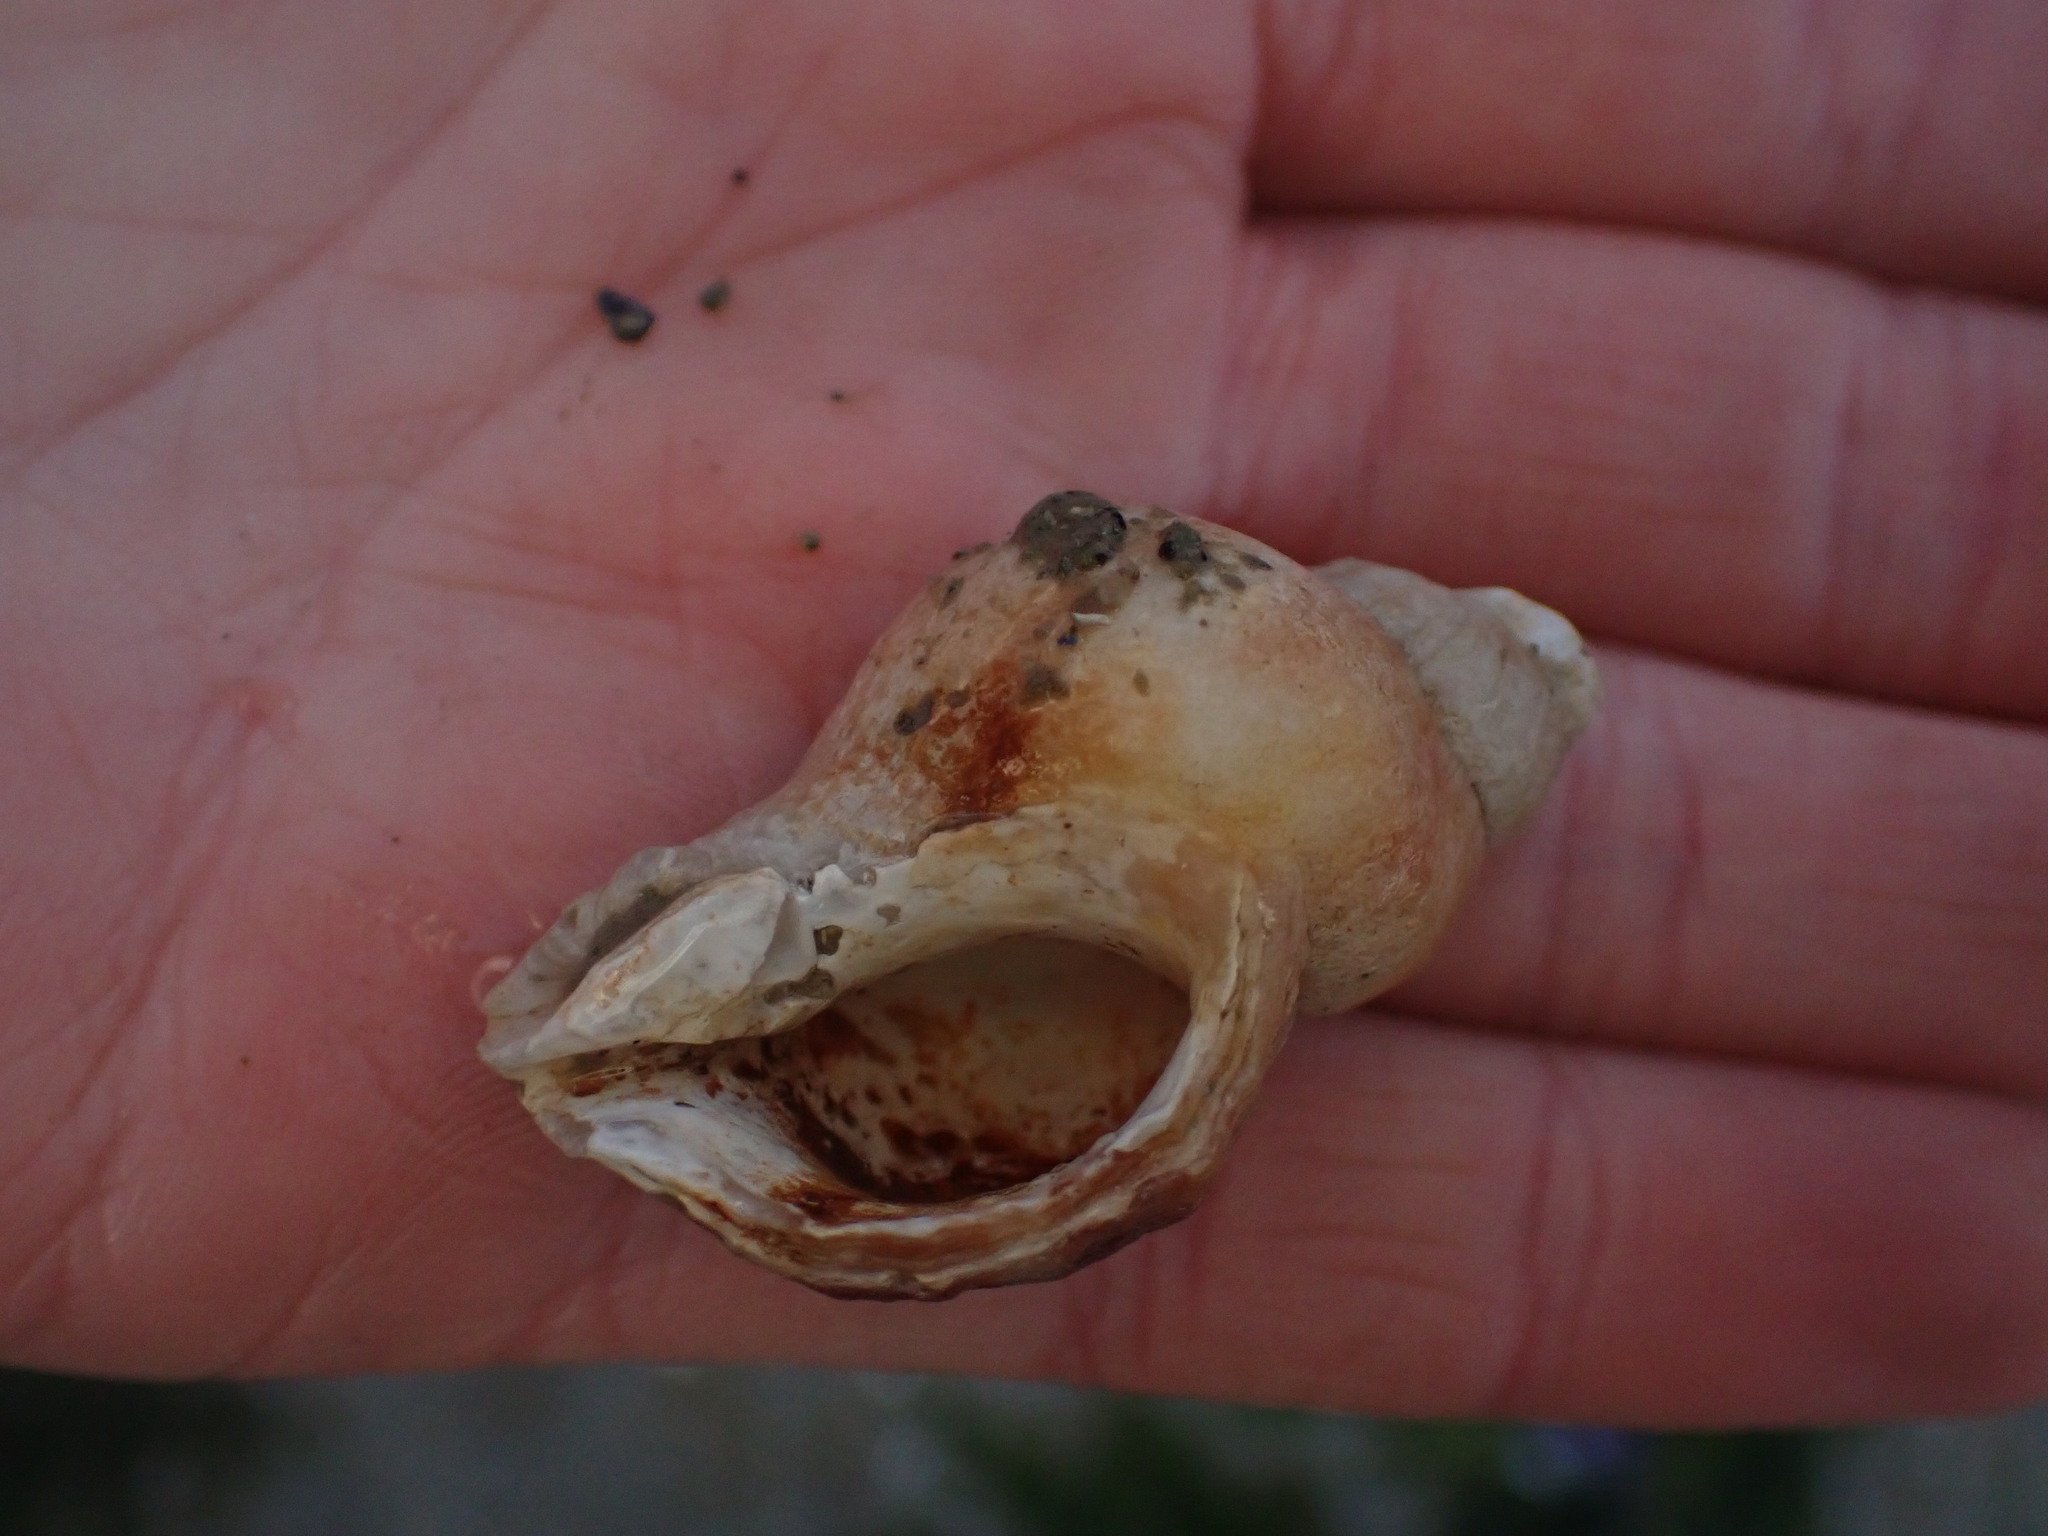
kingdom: Animalia
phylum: Mollusca
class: Gastropoda
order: Neogastropoda
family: Muricidae
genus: Nucella
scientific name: Nucella lamellosa
